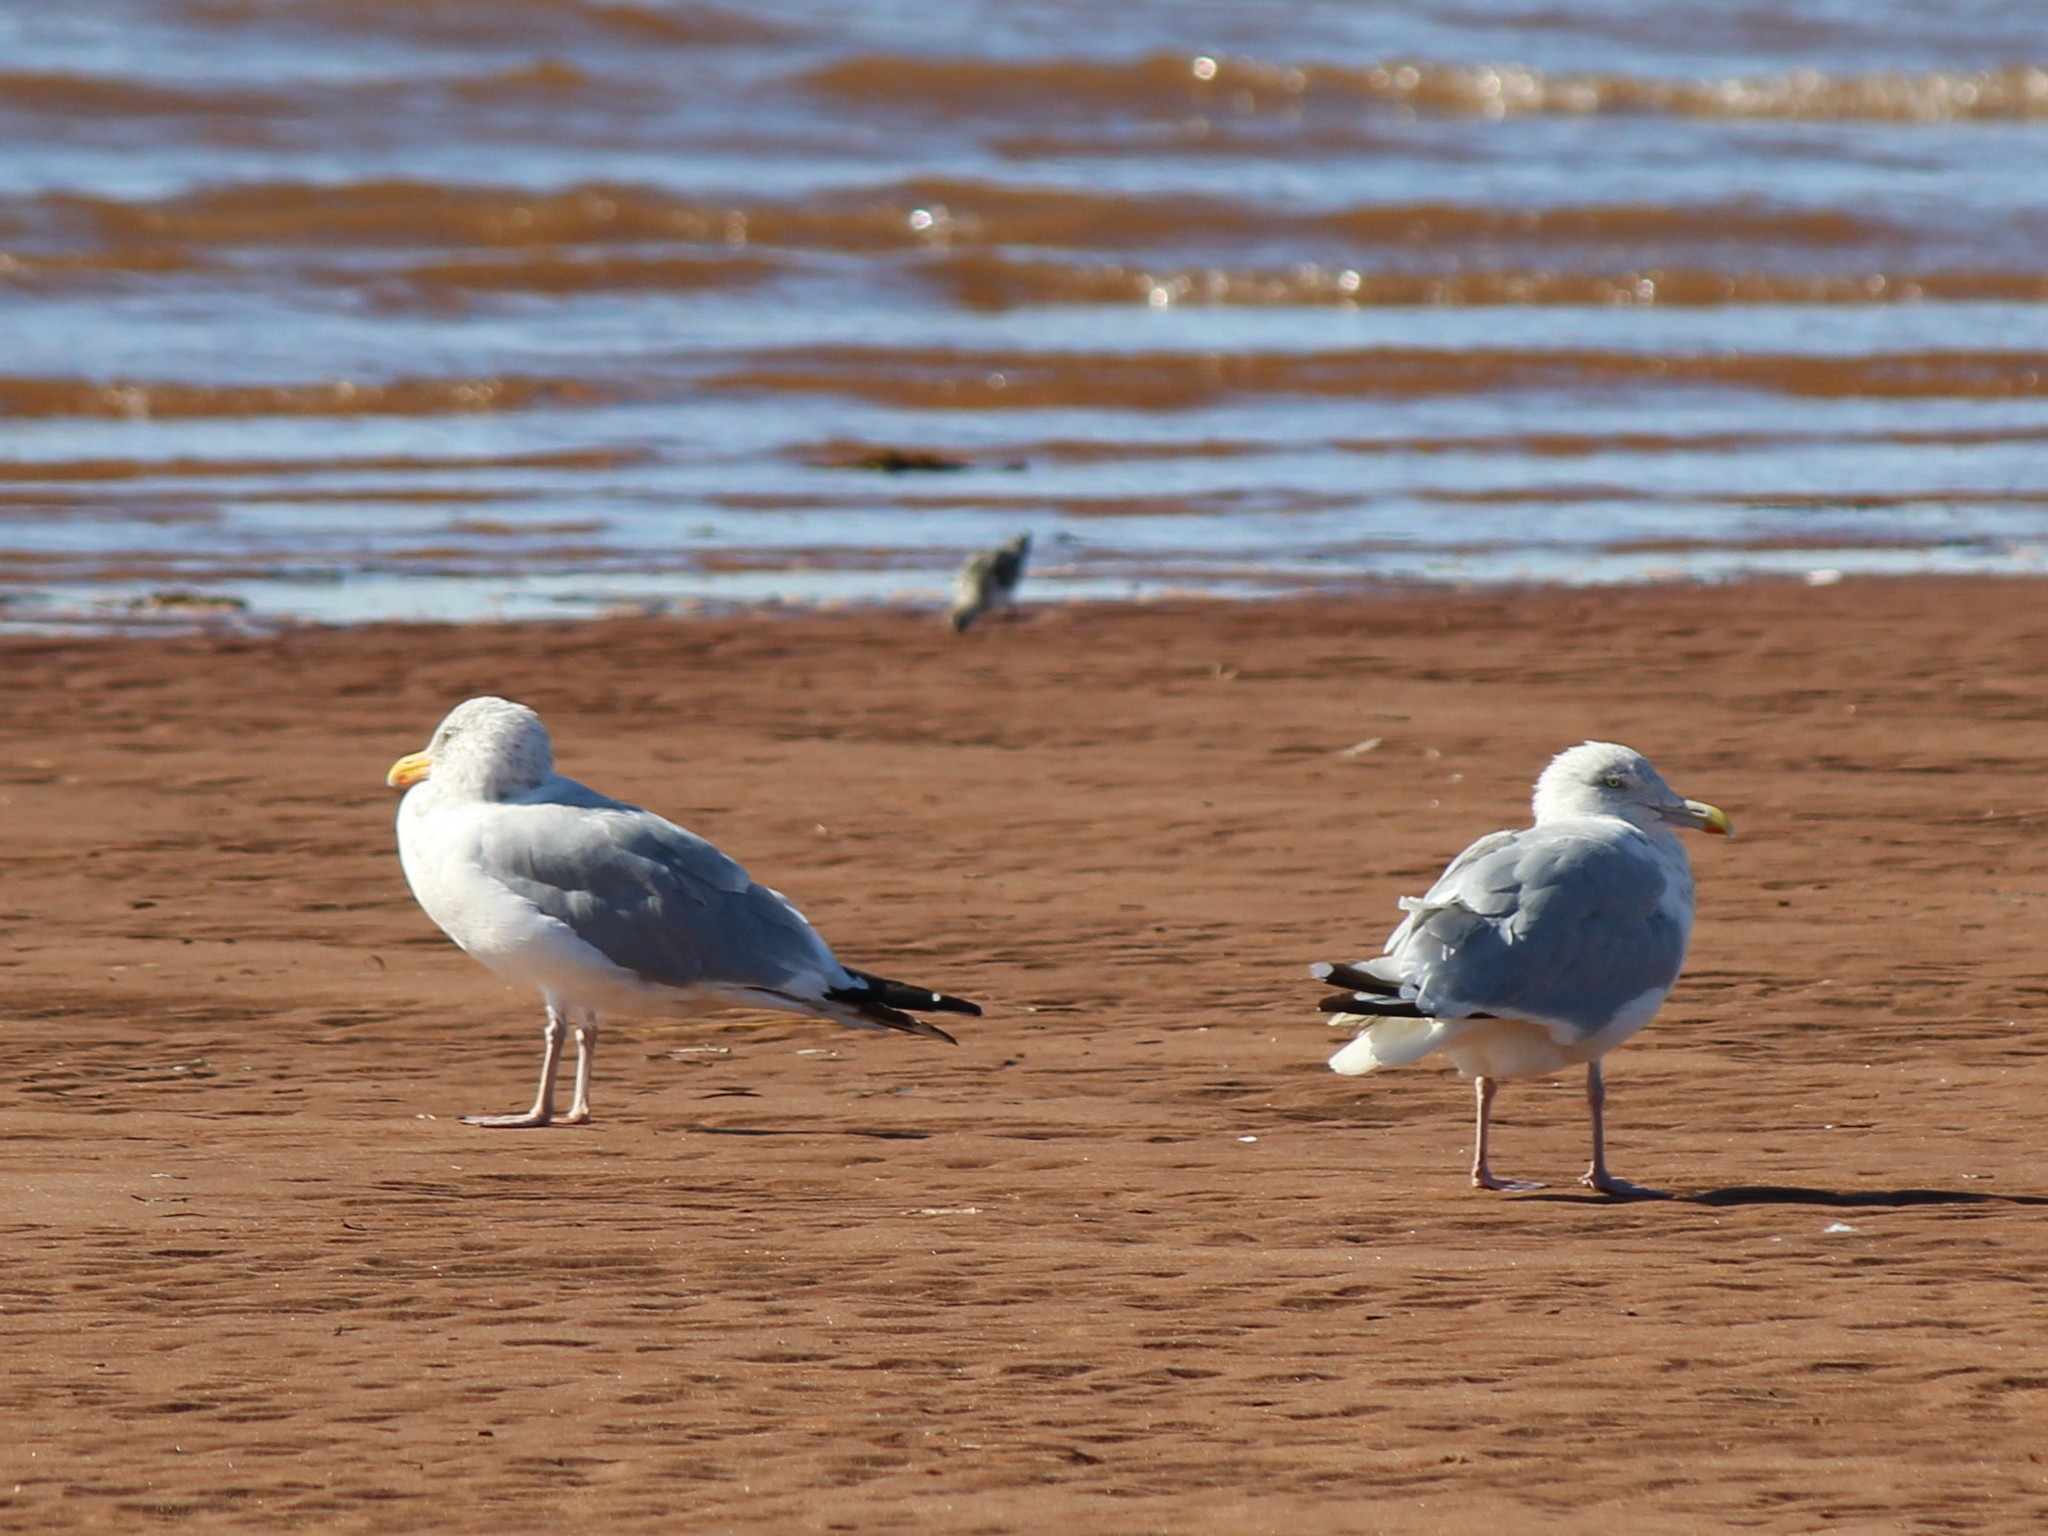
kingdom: Animalia
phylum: Chordata
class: Aves
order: Charadriiformes
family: Laridae
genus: Larus
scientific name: Larus argentatus
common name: Herring gull
